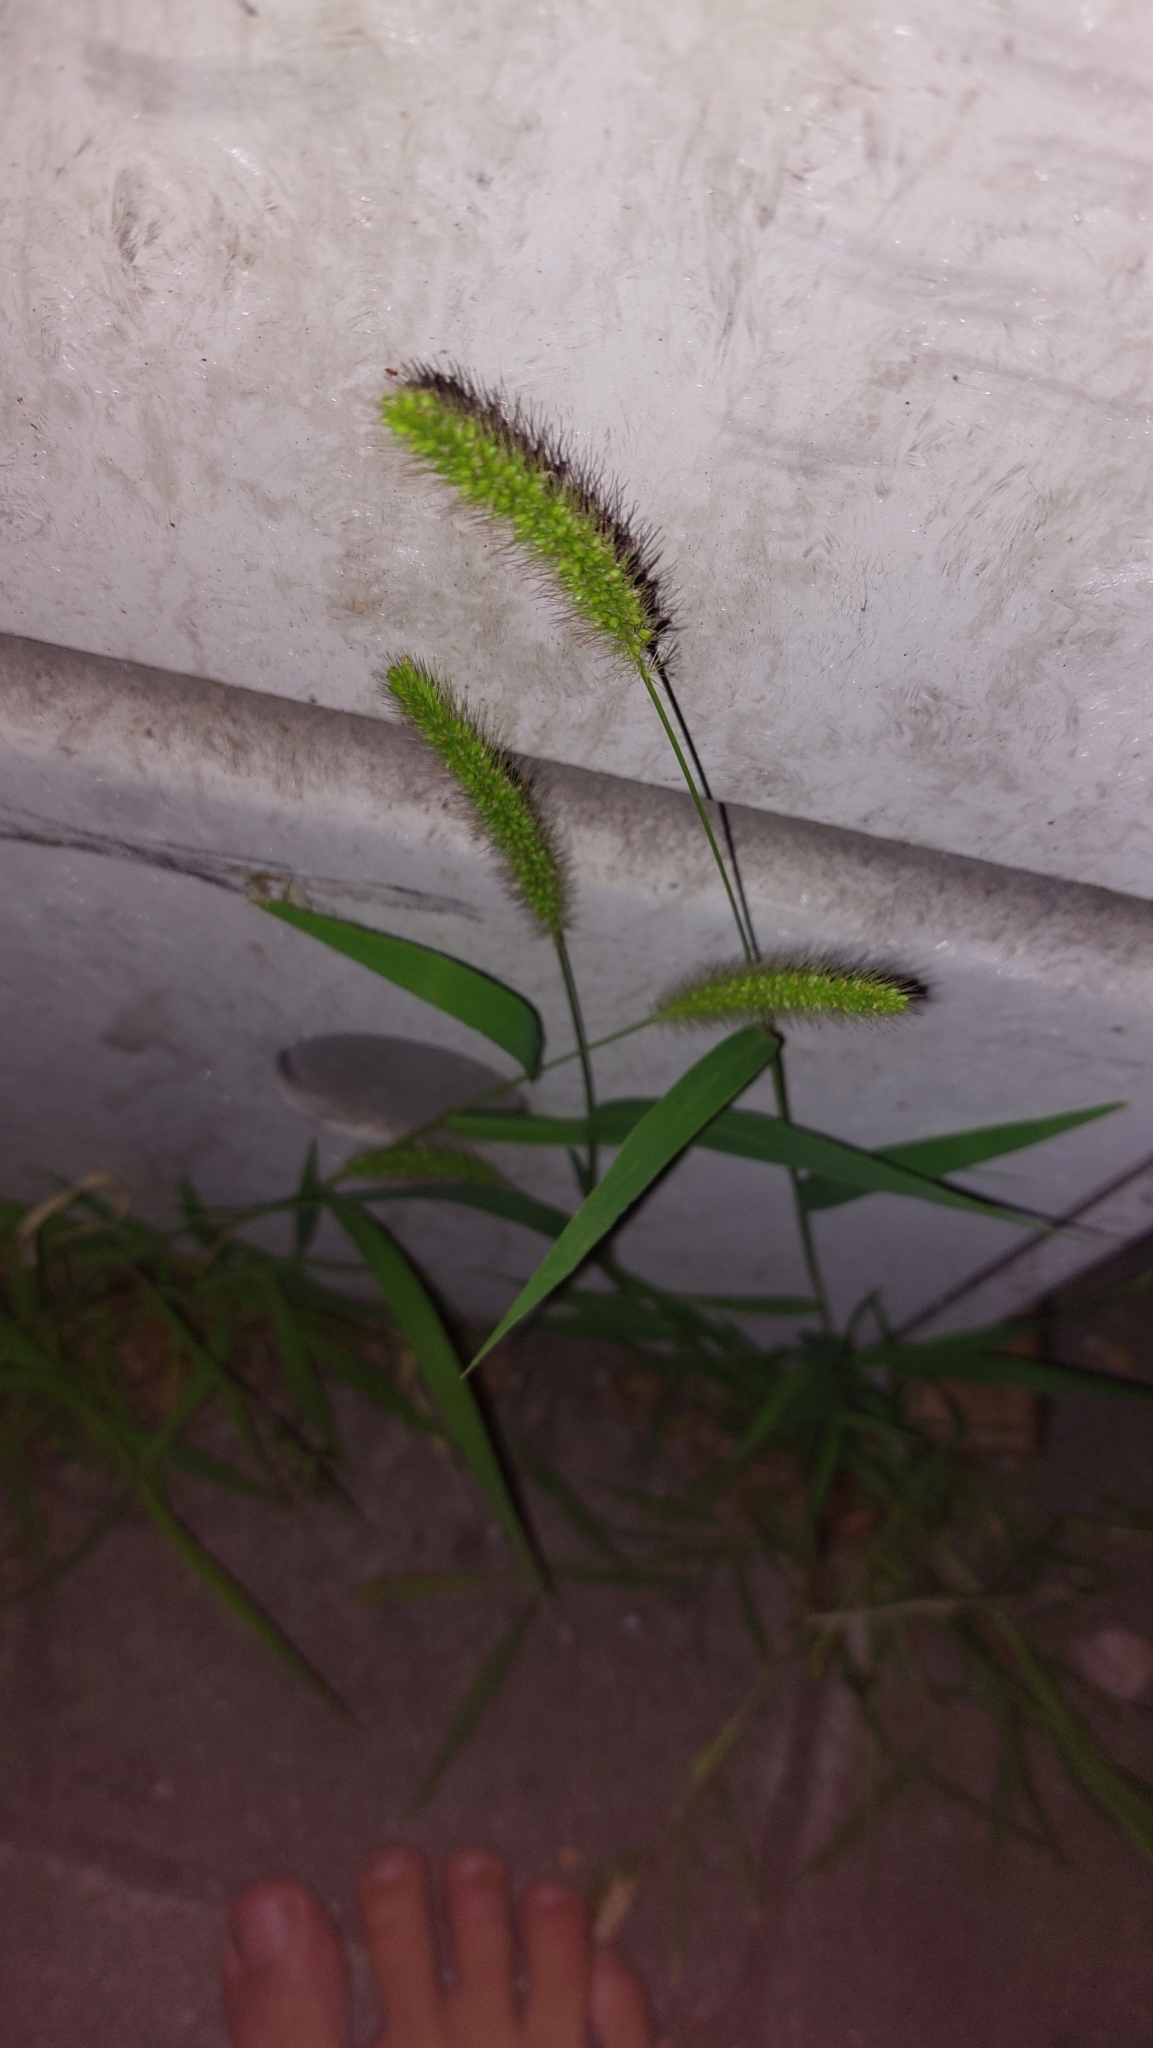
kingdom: Plantae
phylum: Tracheophyta
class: Liliopsida
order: Poales
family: Poaceae
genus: Setaria
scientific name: Setaria viridis
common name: Green bristlegrass
